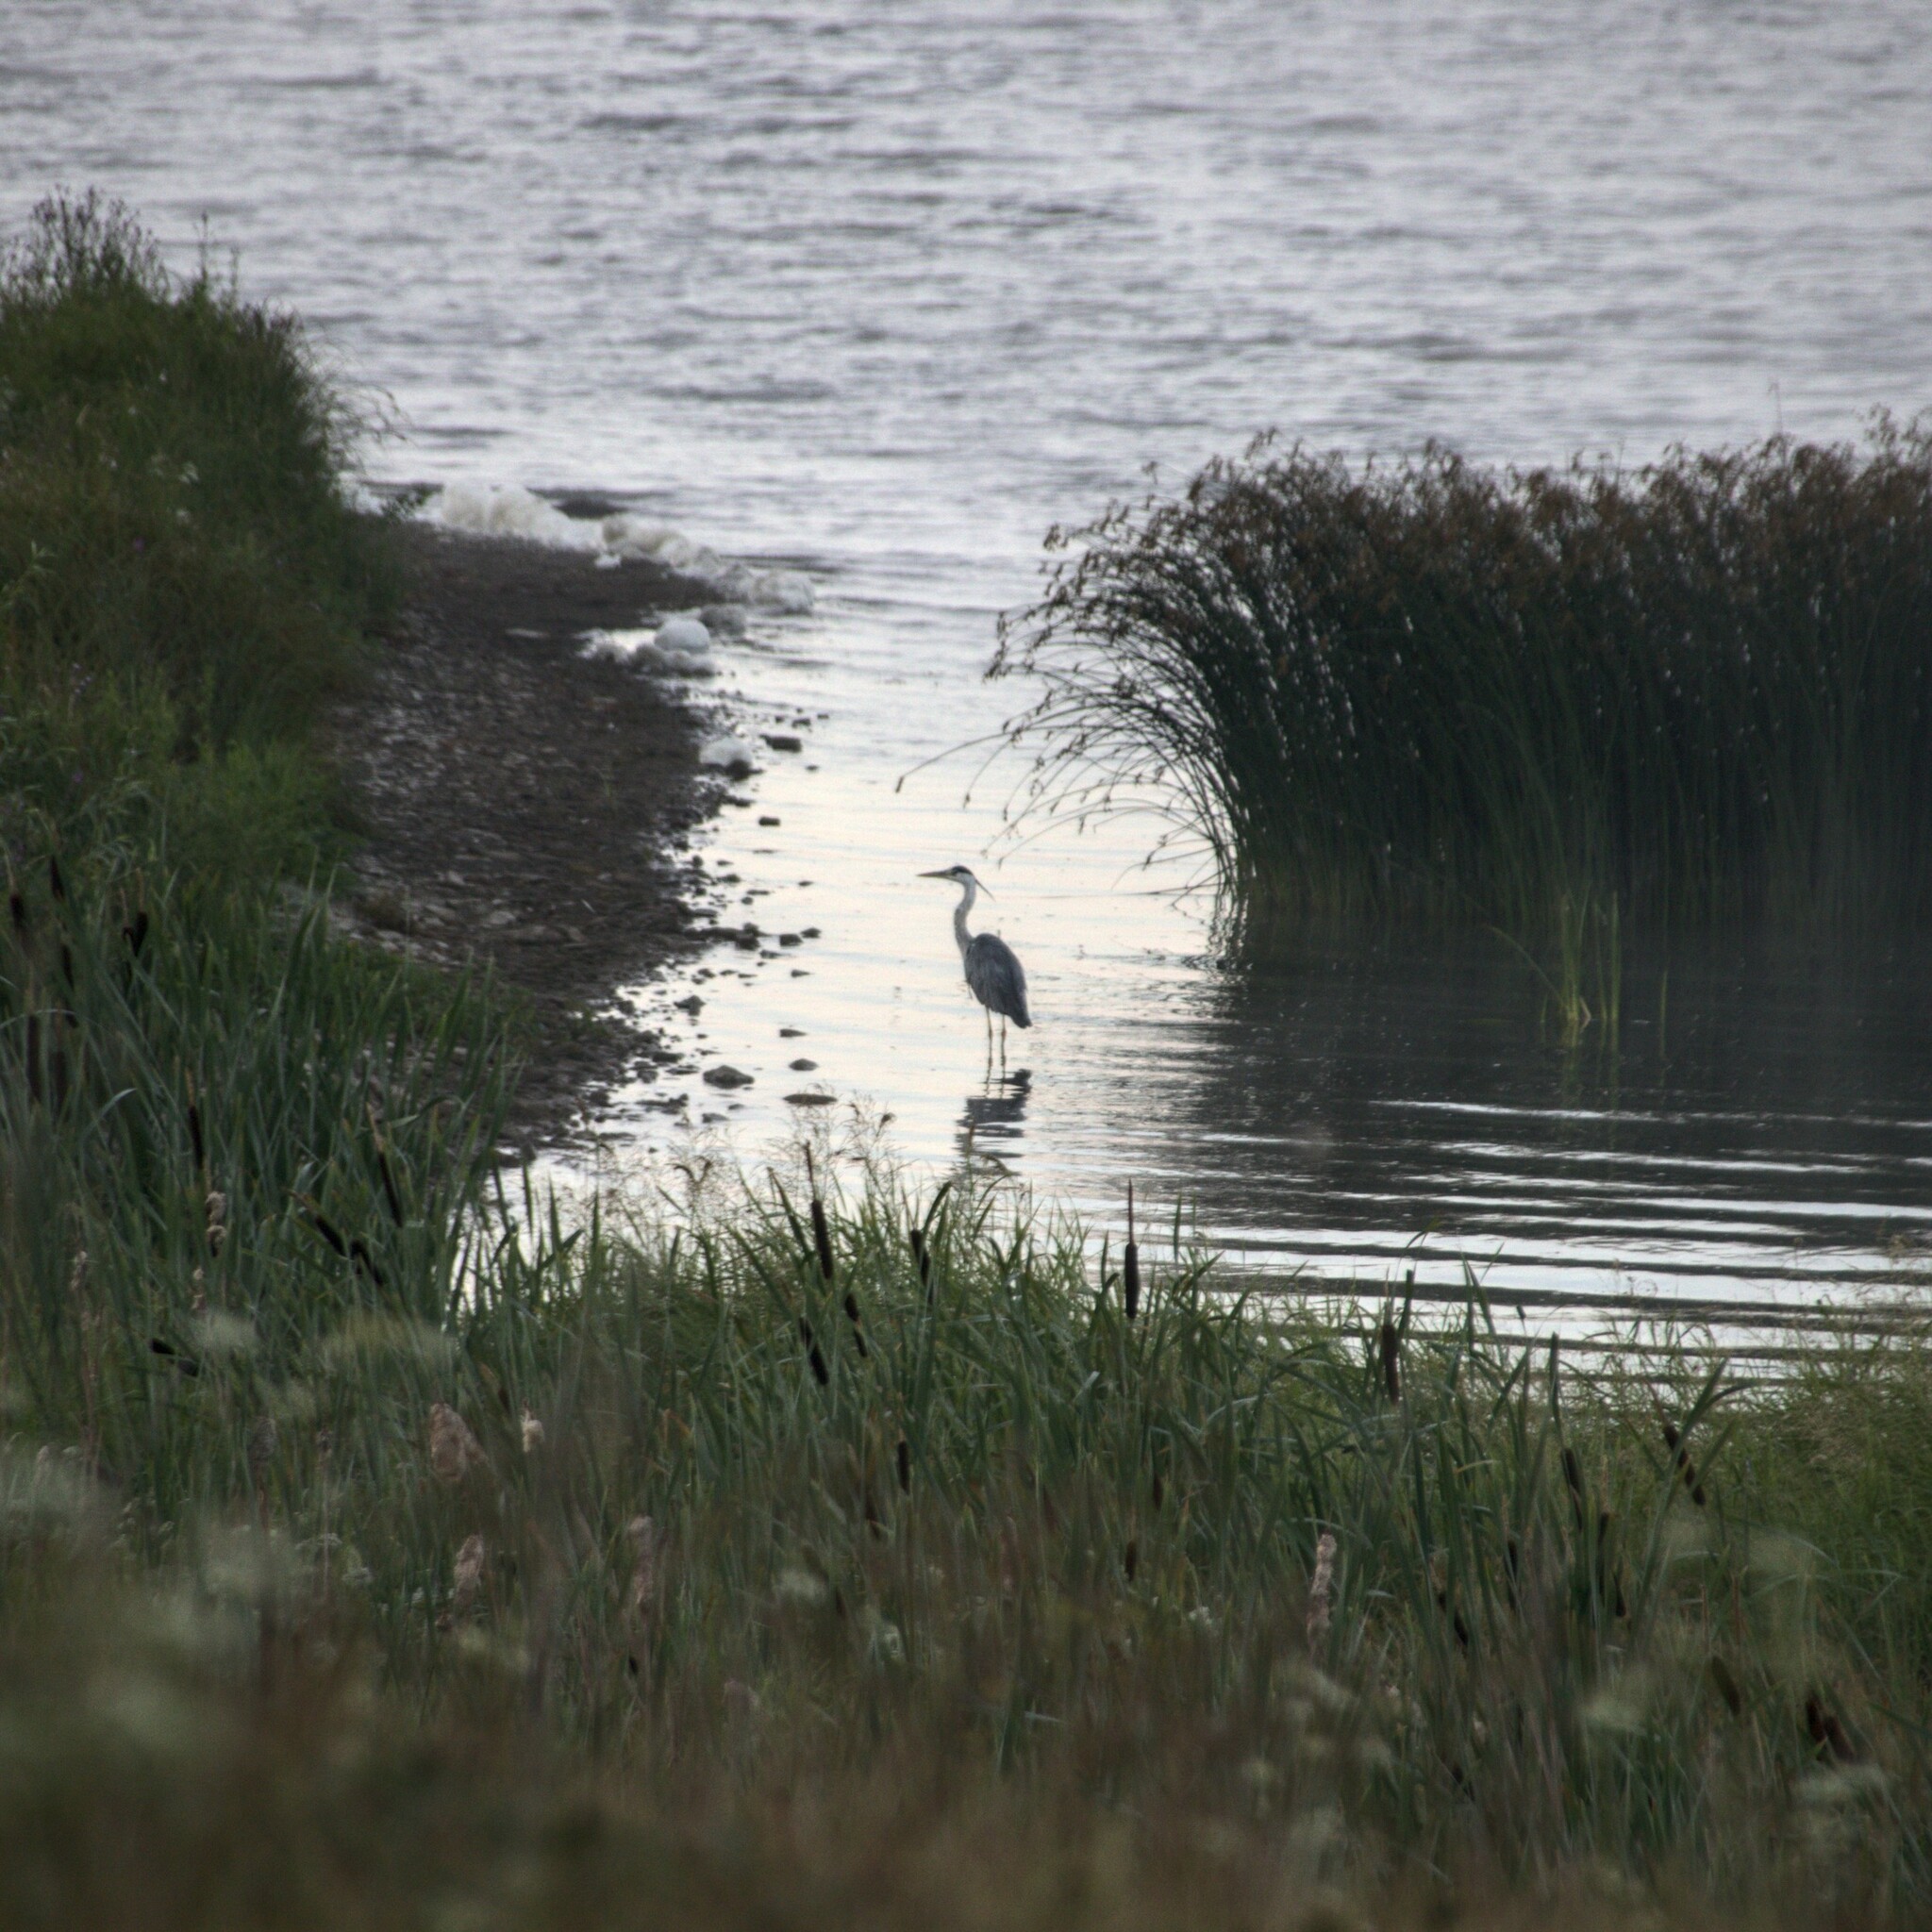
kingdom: Animalia
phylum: Chordata
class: Aves
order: Pelecaniformes
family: Ardeidae
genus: Ardea
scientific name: Ardea cinerea
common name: Grey heron
